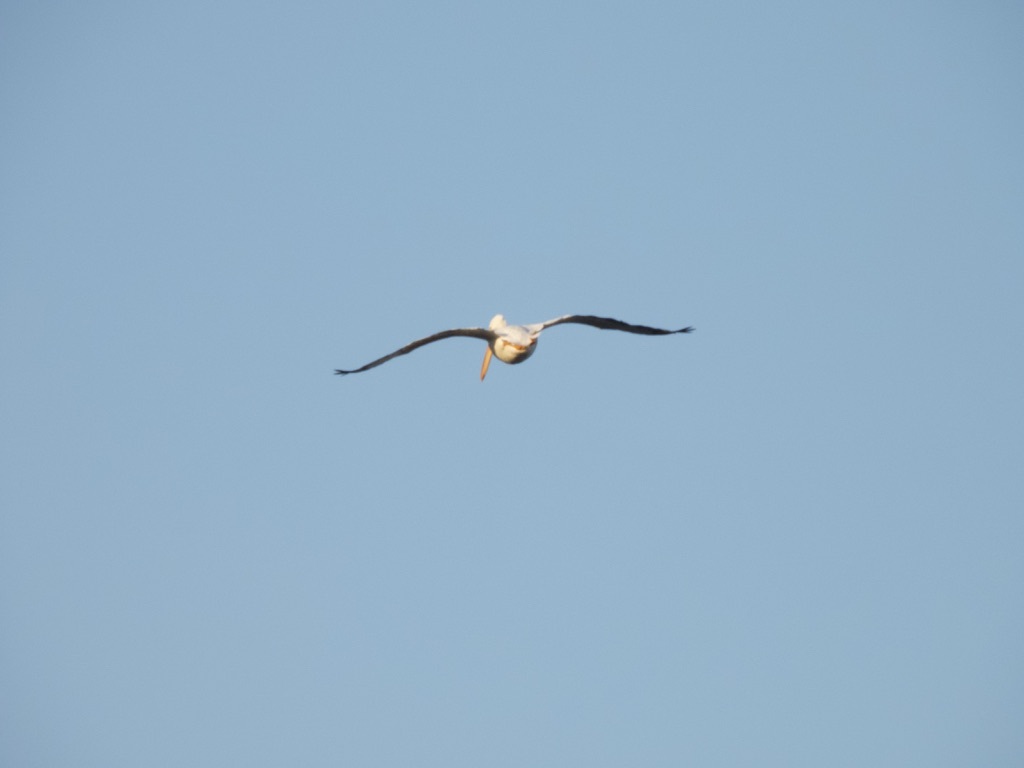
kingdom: Animalia
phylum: Chordata
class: Aves
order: Pelecaniformes
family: Pelecanidae
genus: Pelecanus
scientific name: Pelecanus erythrorhynchos
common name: American white pelican
